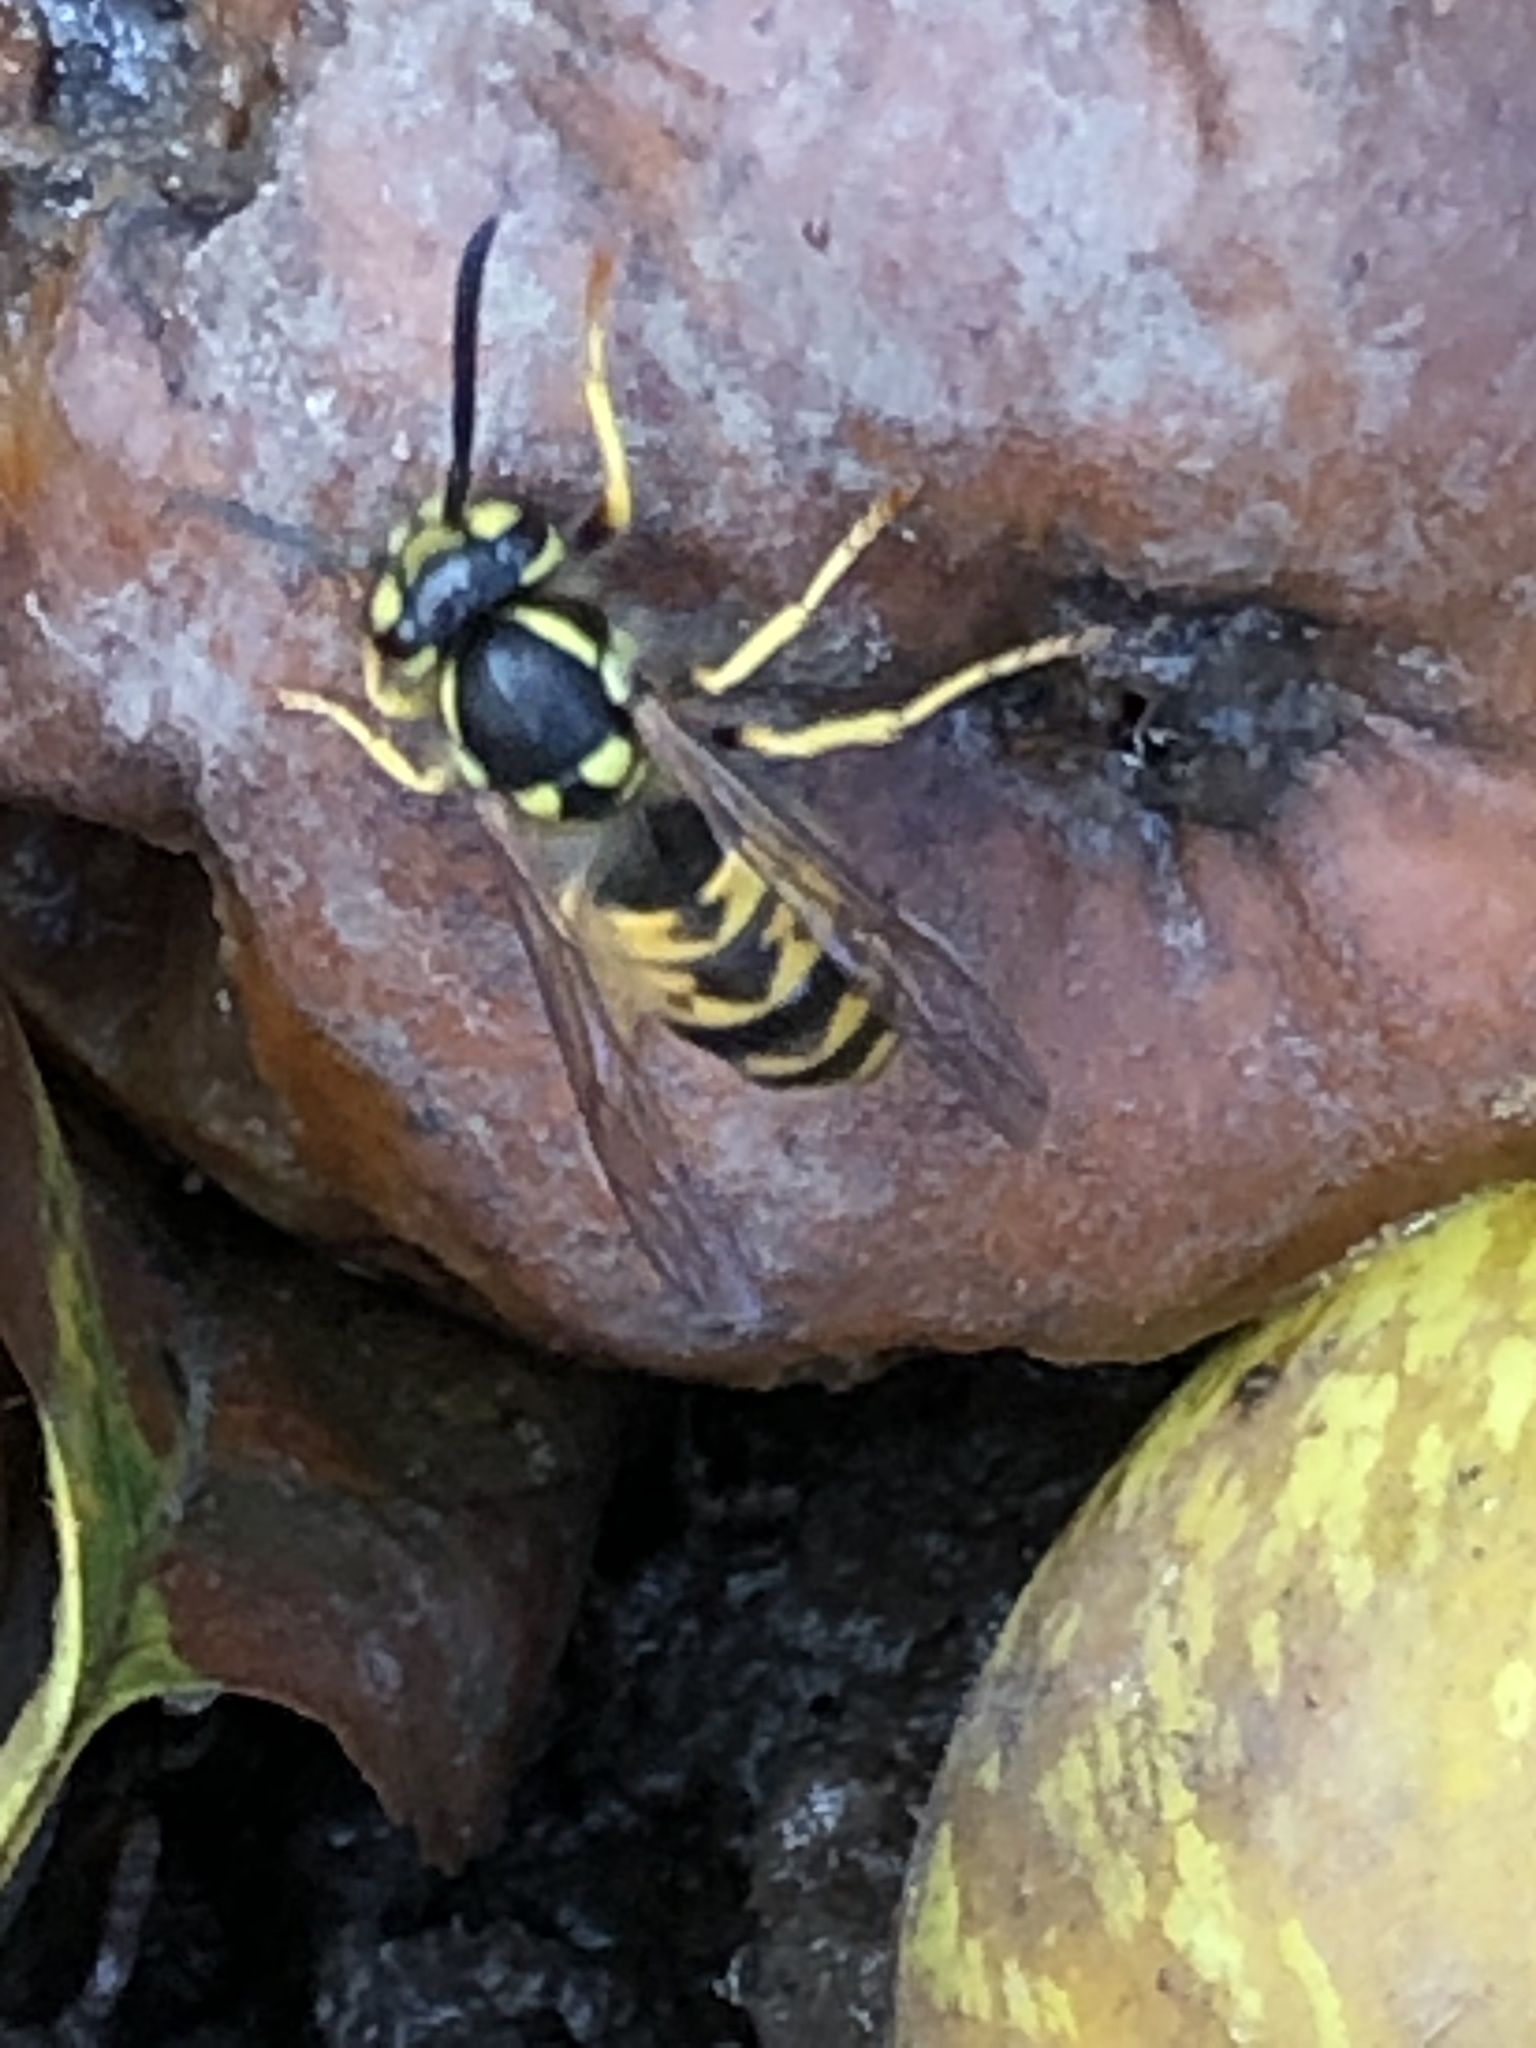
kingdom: Animalia
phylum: Arthropoda
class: Insecta
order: Hymenoptera
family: Vespidae
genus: Vespula
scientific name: Vespula germanica
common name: German wasp
